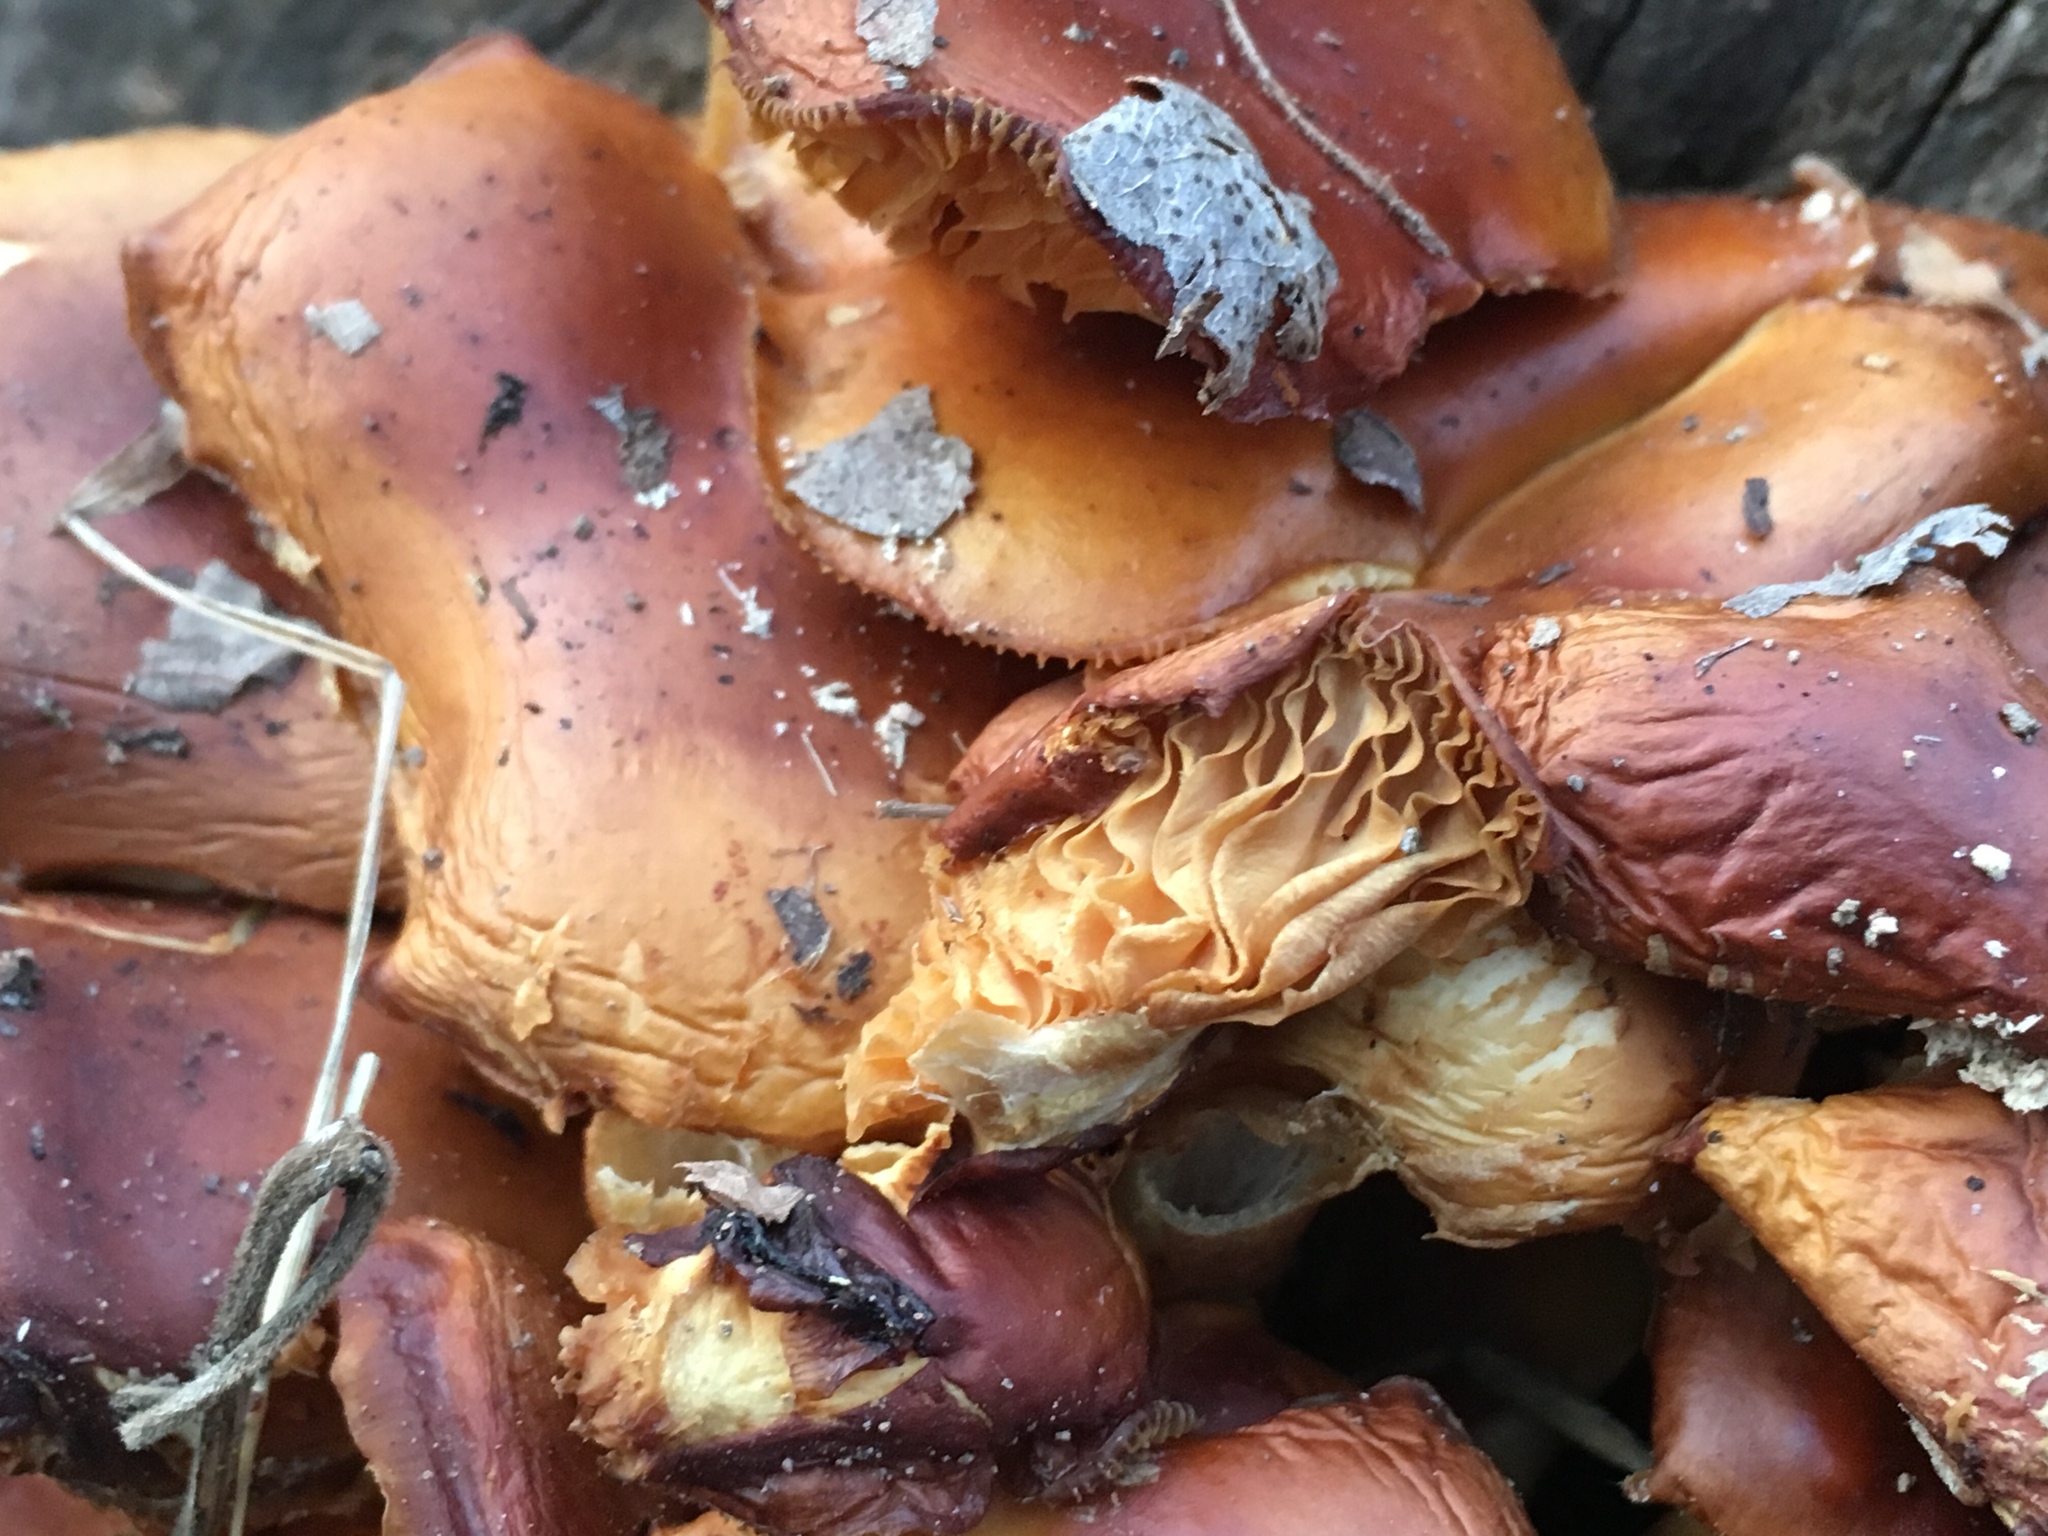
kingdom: Fungi
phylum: Basidiomycota
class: Agaricomycetes
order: Agaricales
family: Physalacriaceae
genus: Flammulina
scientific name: Flammulina velutipes
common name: Velvet shank
